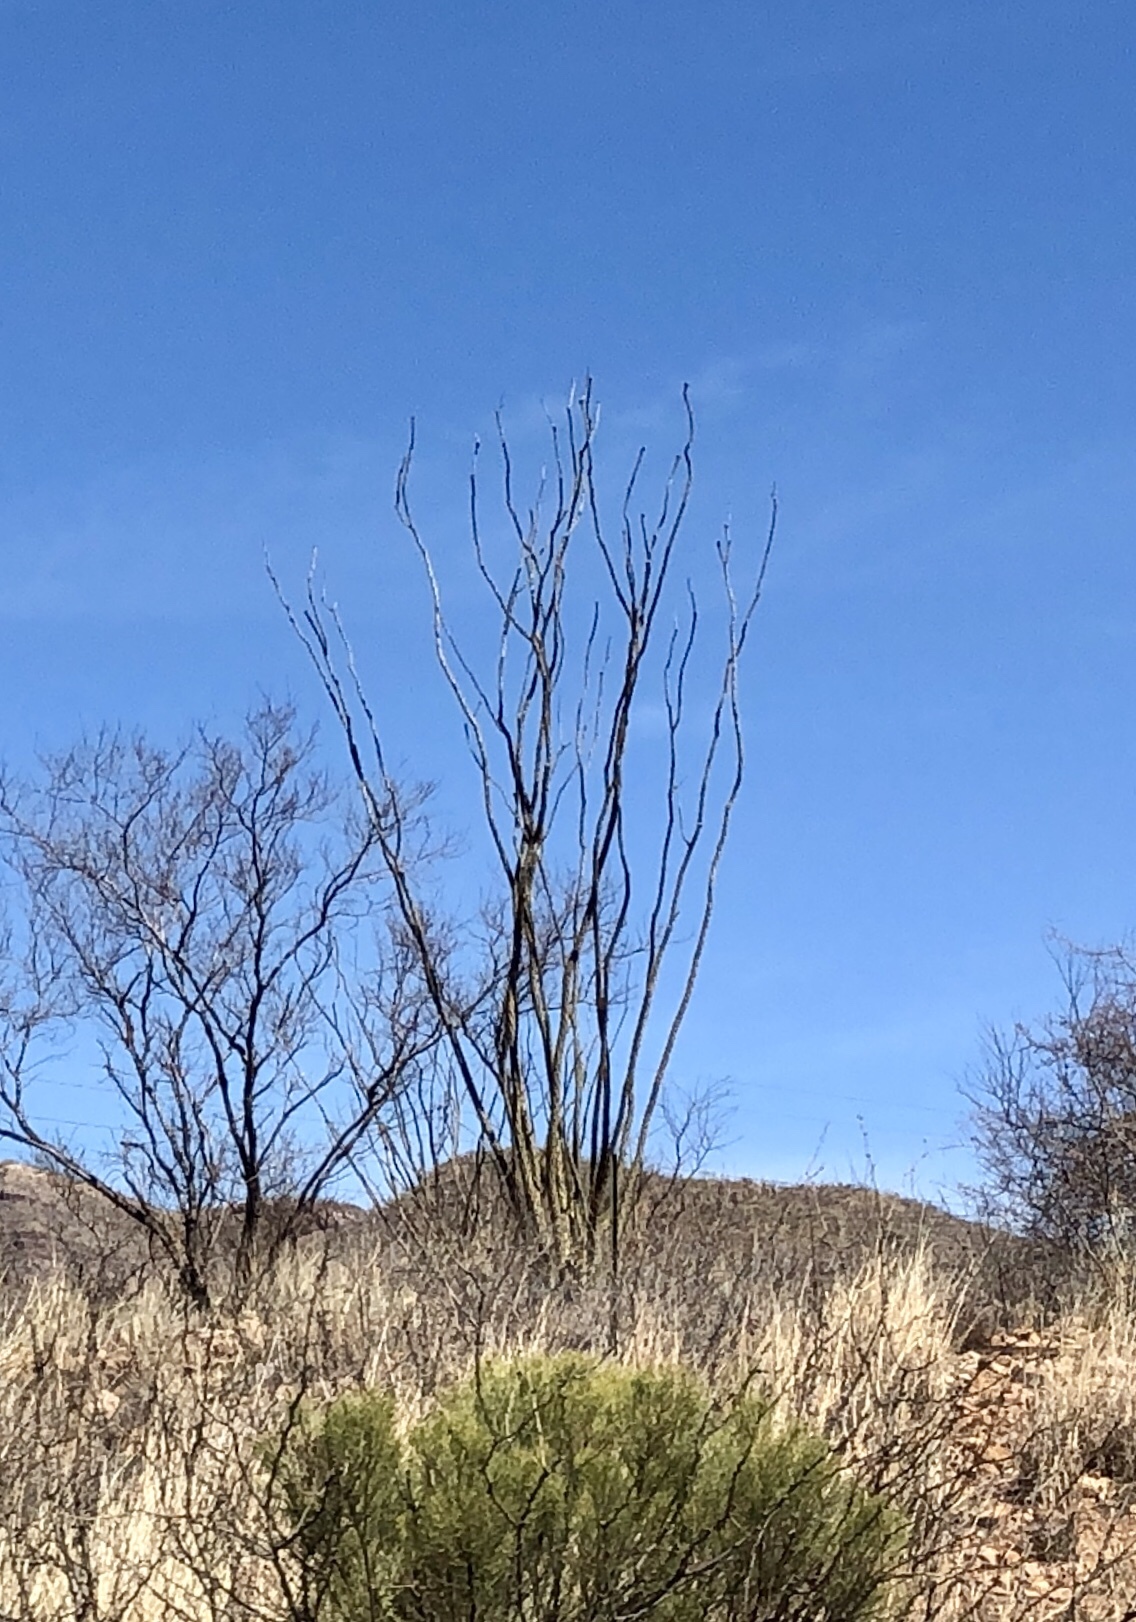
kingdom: Plantae
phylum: Tracheophyta
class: Magnoliopsida
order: Ericales
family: Fouquieriaceae
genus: Fouquieria
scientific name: Fouquieria splendens
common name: Vine-cactus
